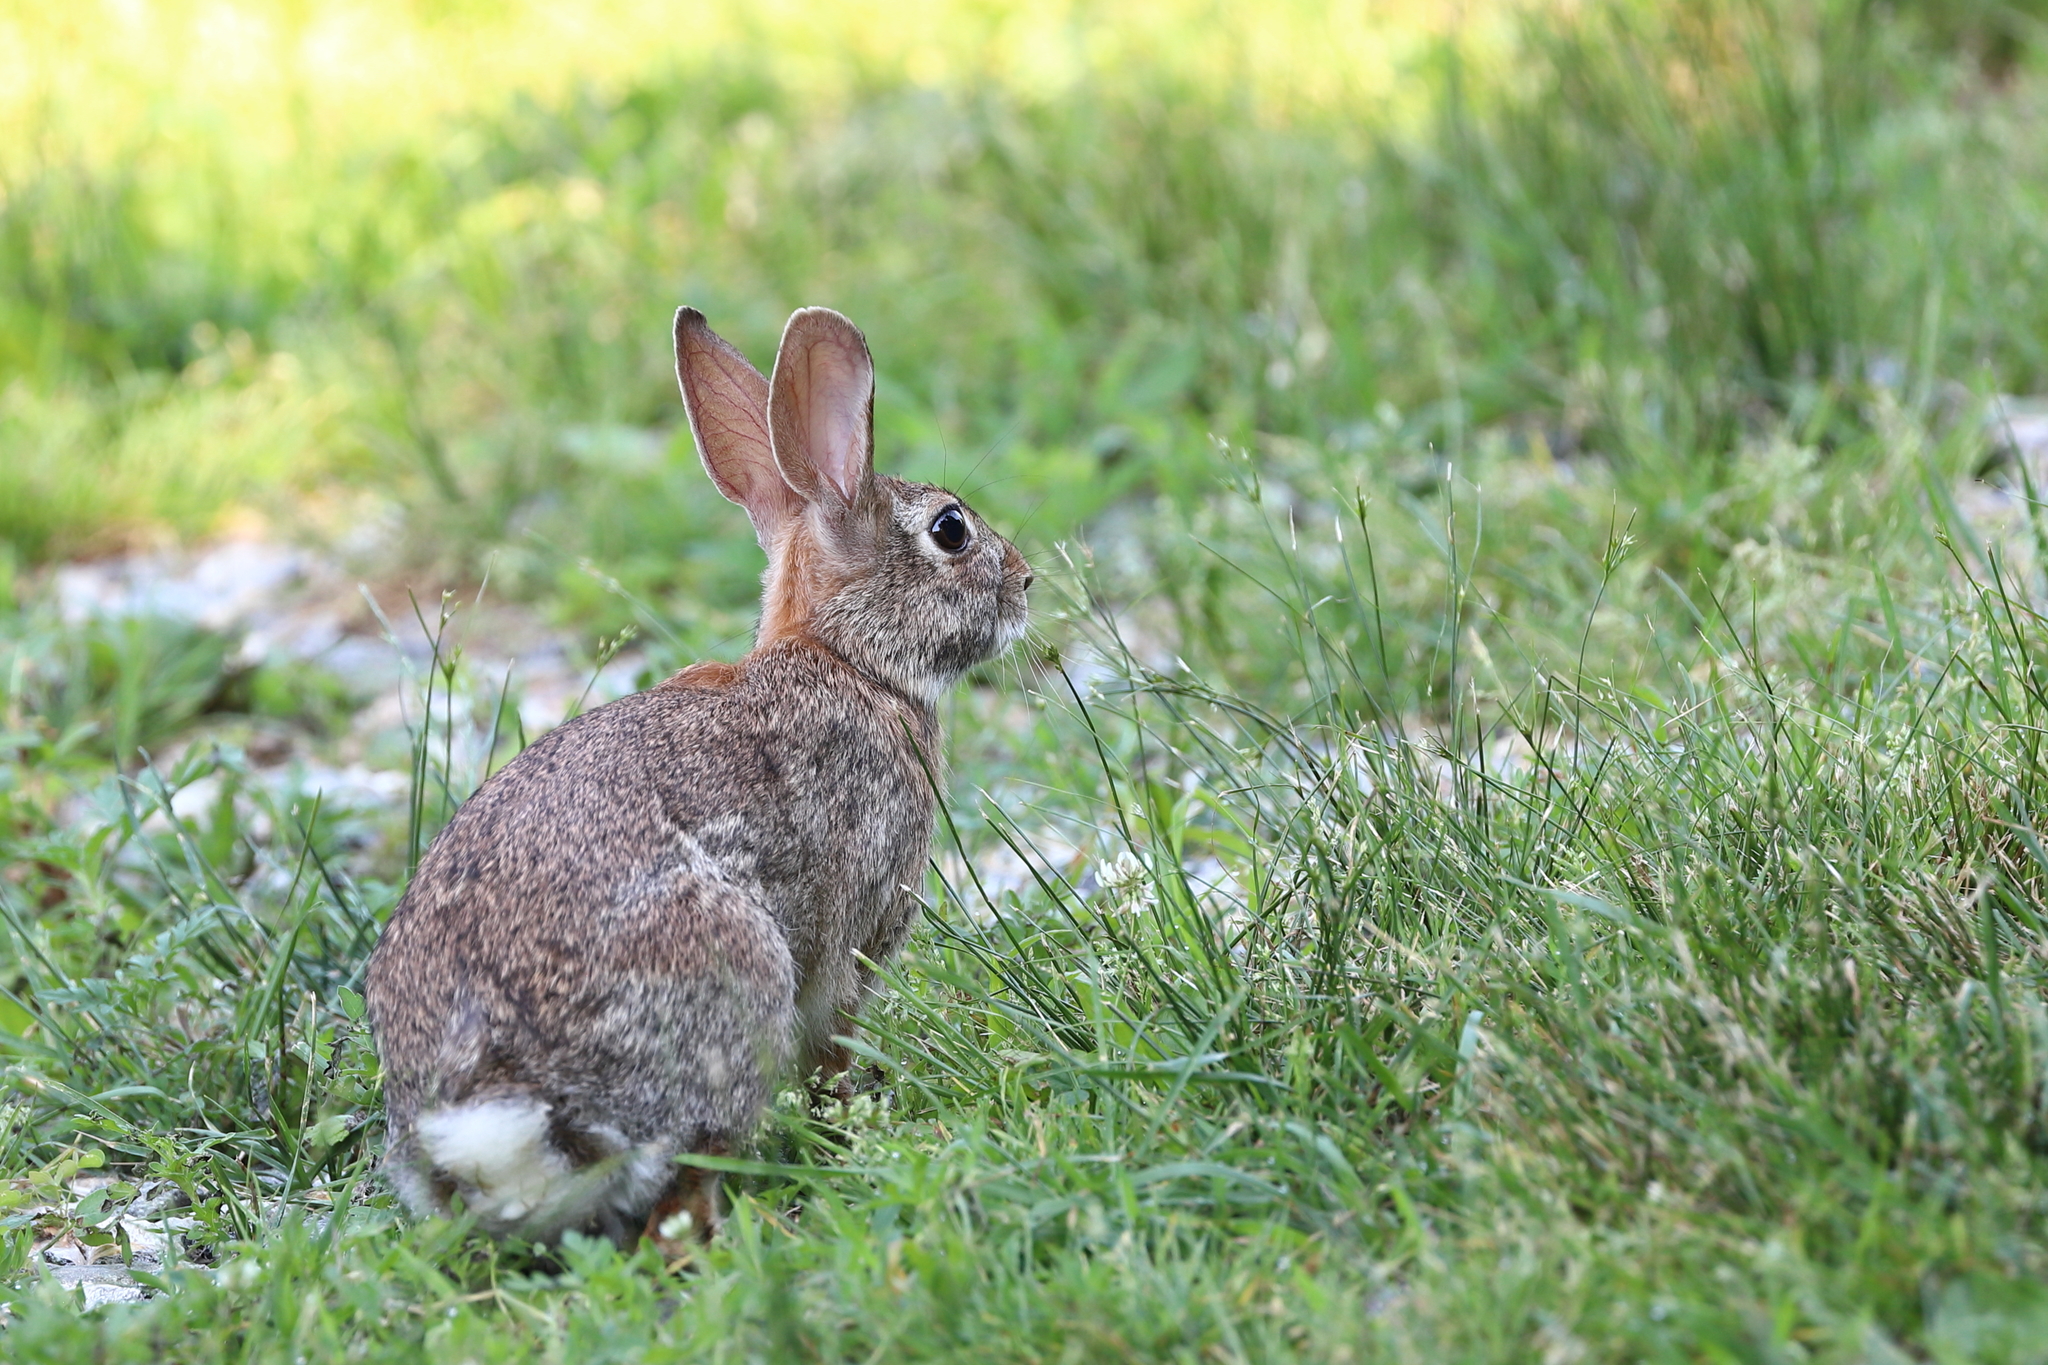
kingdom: Animalia
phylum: Chordata
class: Mammalia
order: Lagomorpha
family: Leporidae
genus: Sylvilagus
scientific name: Sylvilagus floridanus
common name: Eastern cottontail
